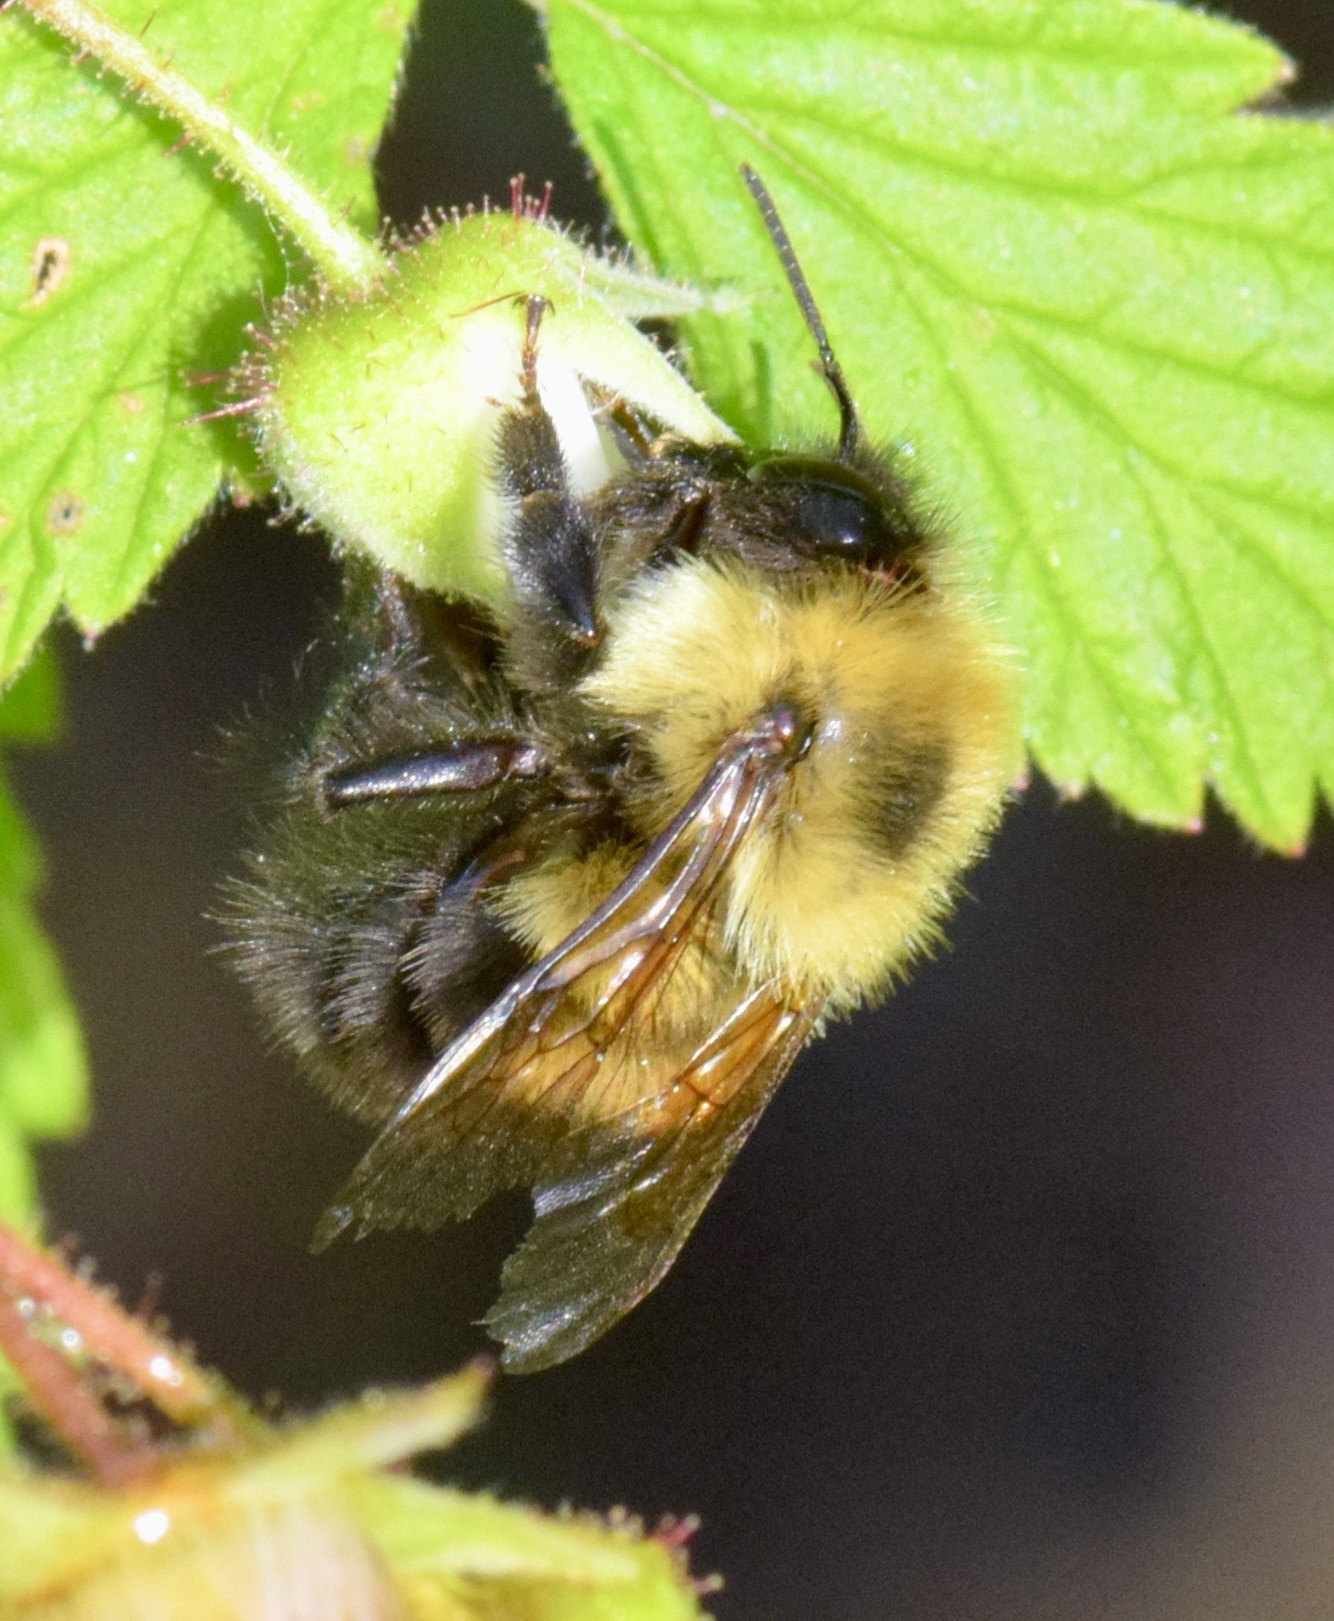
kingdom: Animalia
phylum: Arthropoda
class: Insecta
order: Hymenoptera
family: Apidae
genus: Bombus
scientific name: Bombus bimaculatus
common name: Two-spotted bumble bee
